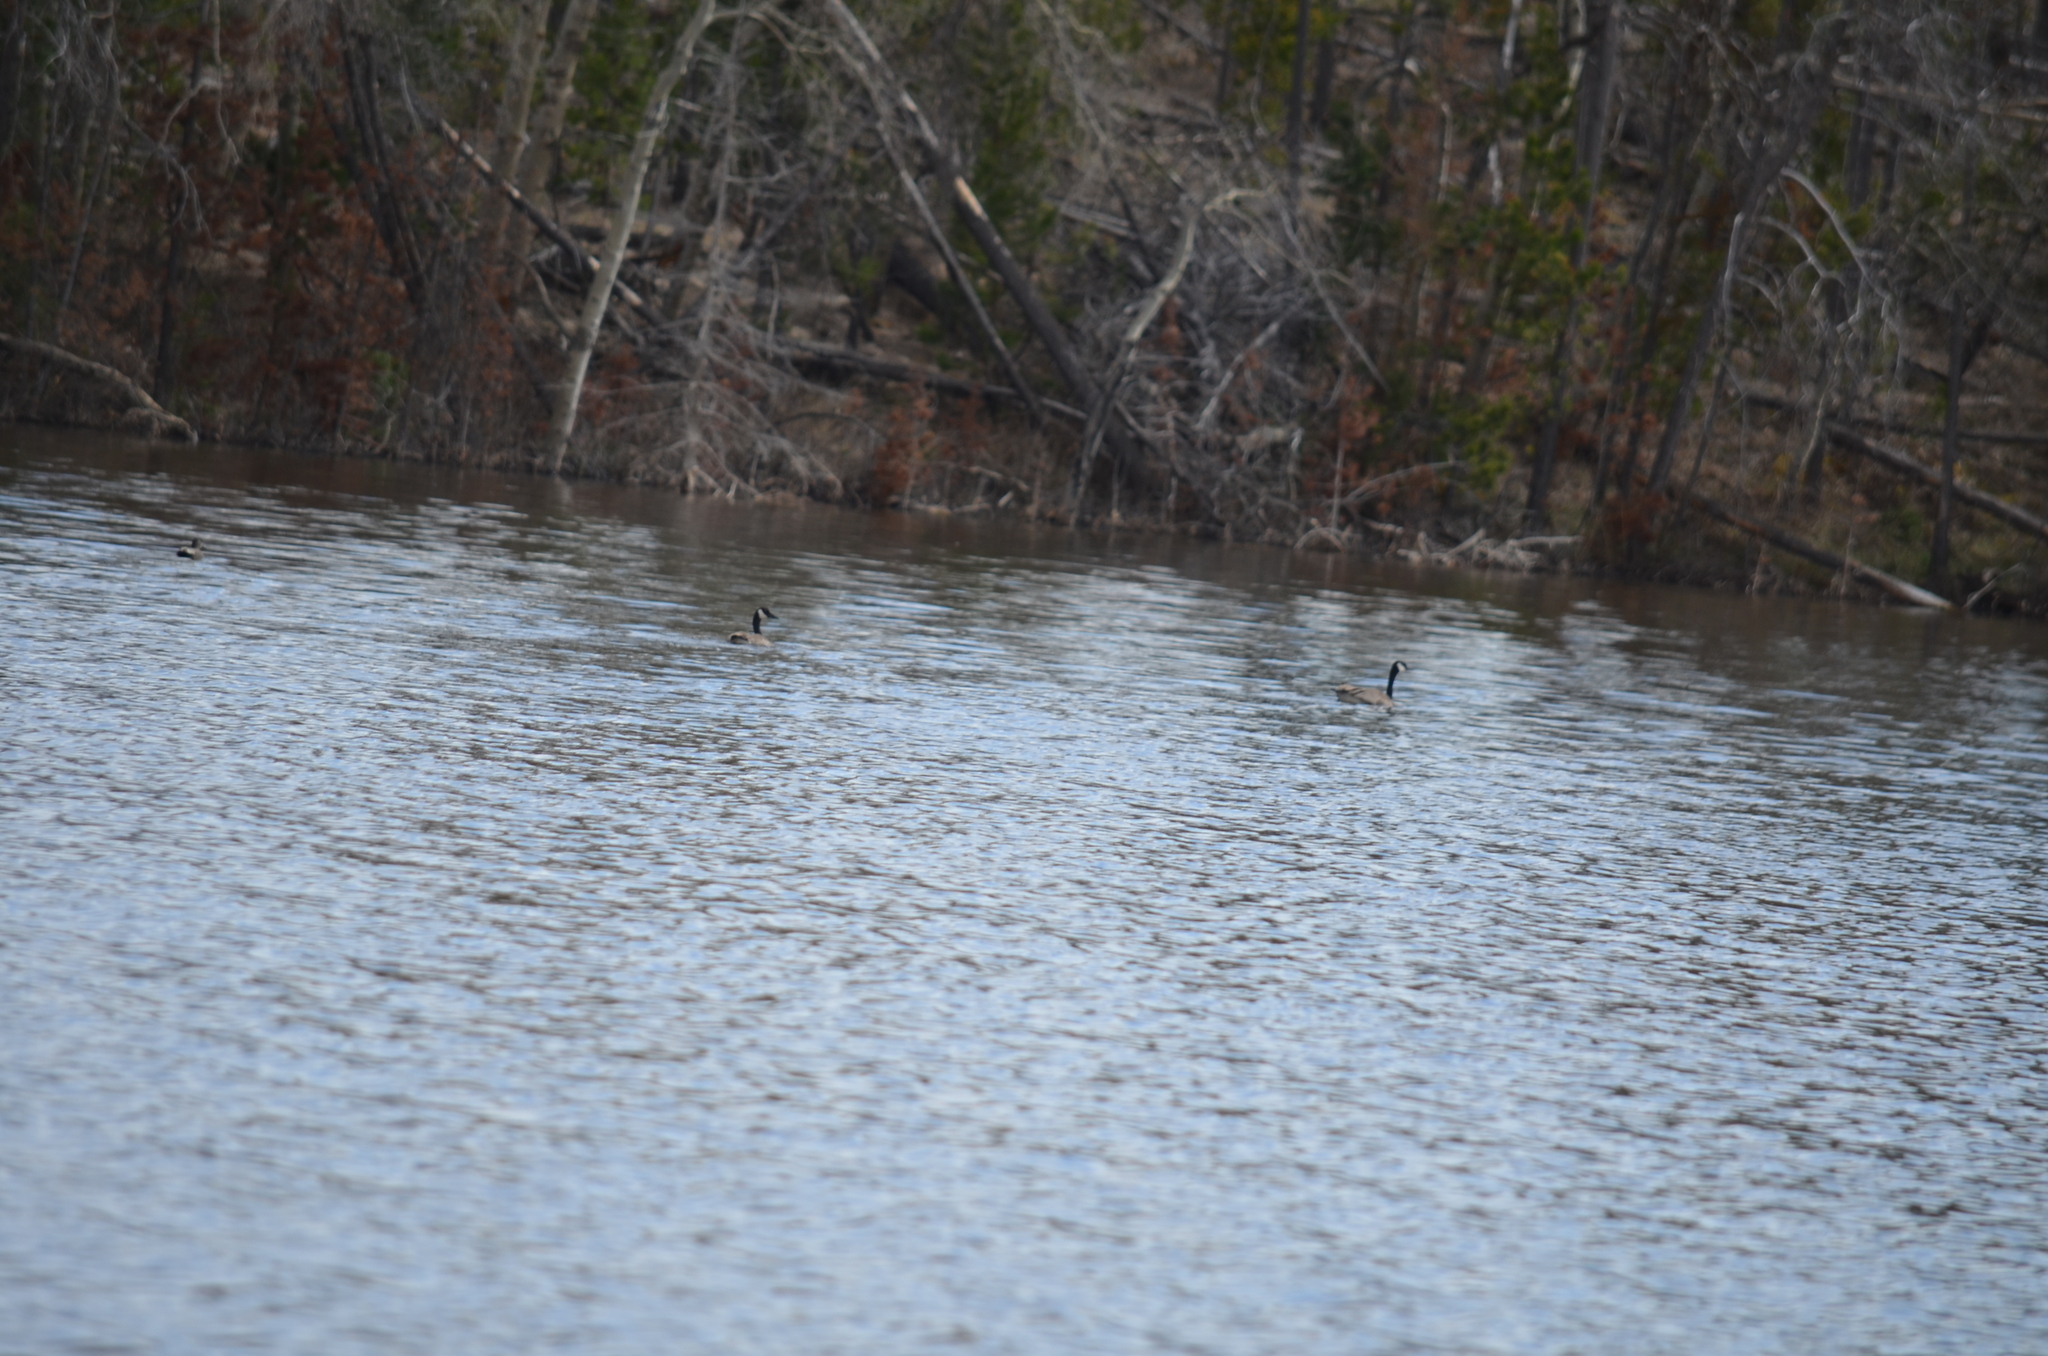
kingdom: Animalia
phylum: Chordata
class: Aves
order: Anseriformes
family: Anatidae
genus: Branta
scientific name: Branta canadensis
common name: Canada goose
